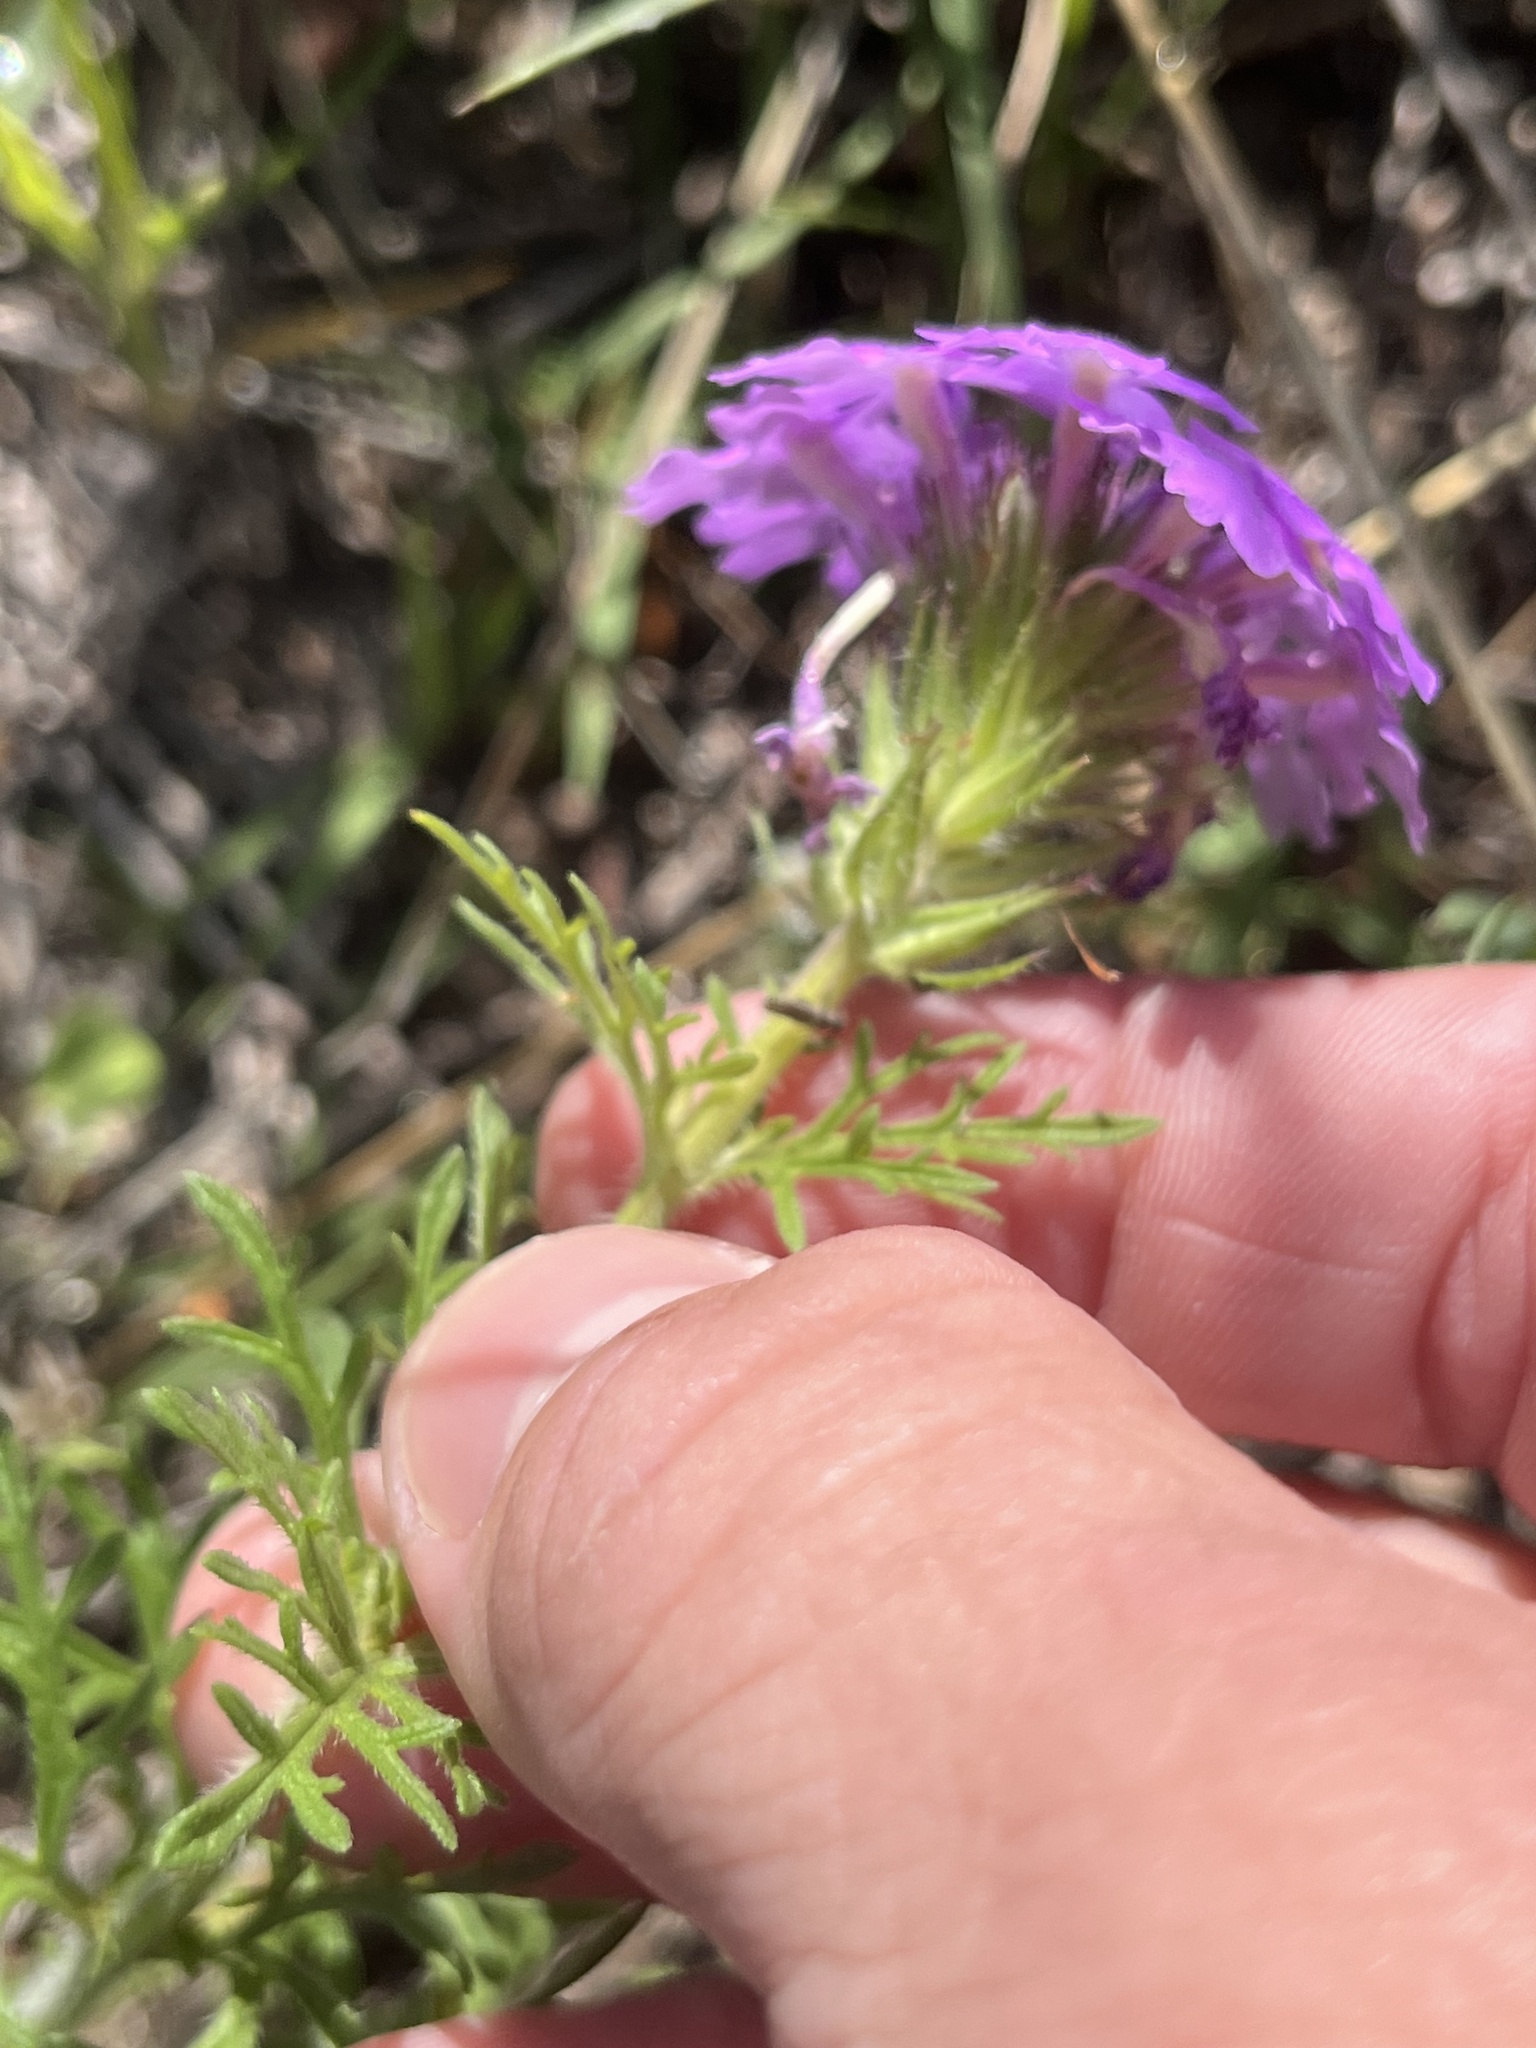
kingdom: Plantae
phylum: Tracheophyta
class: Magnoliopsida
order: Lamiales
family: Verbenaceae
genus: Verbena
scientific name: Verbena bipinnatifida
